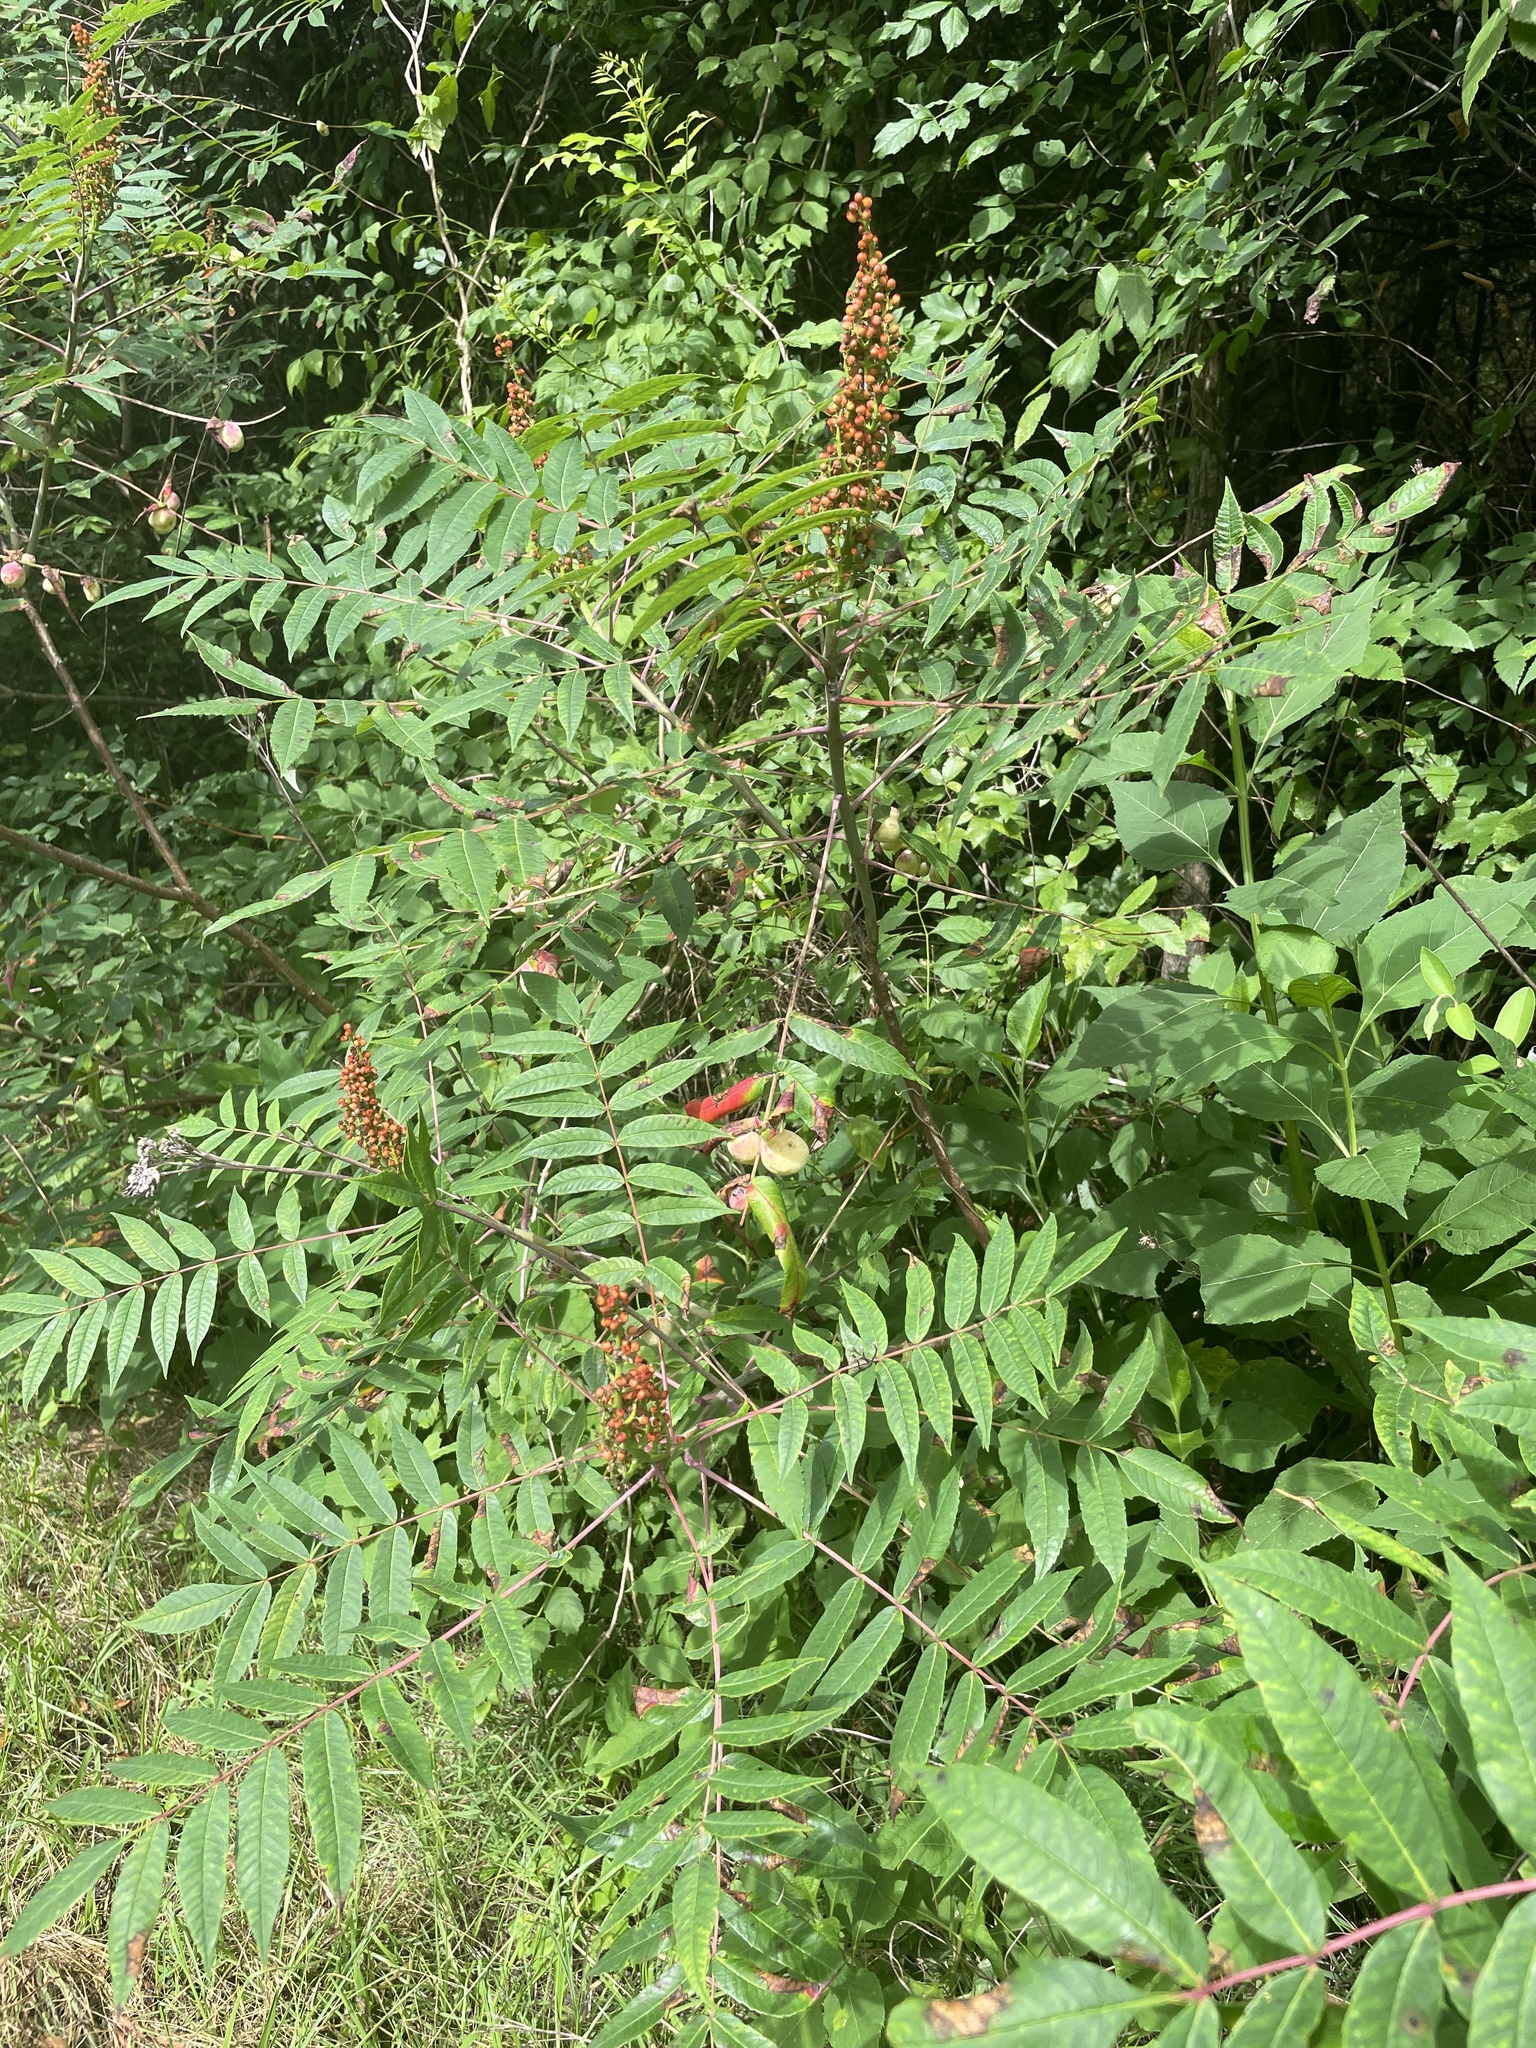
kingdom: Plantae
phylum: Tracheophyta
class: Magnoliopsida
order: Sapindales
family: Anacardiaceae
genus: Rhus
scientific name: Rhus glabra
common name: Scarlet sumac
